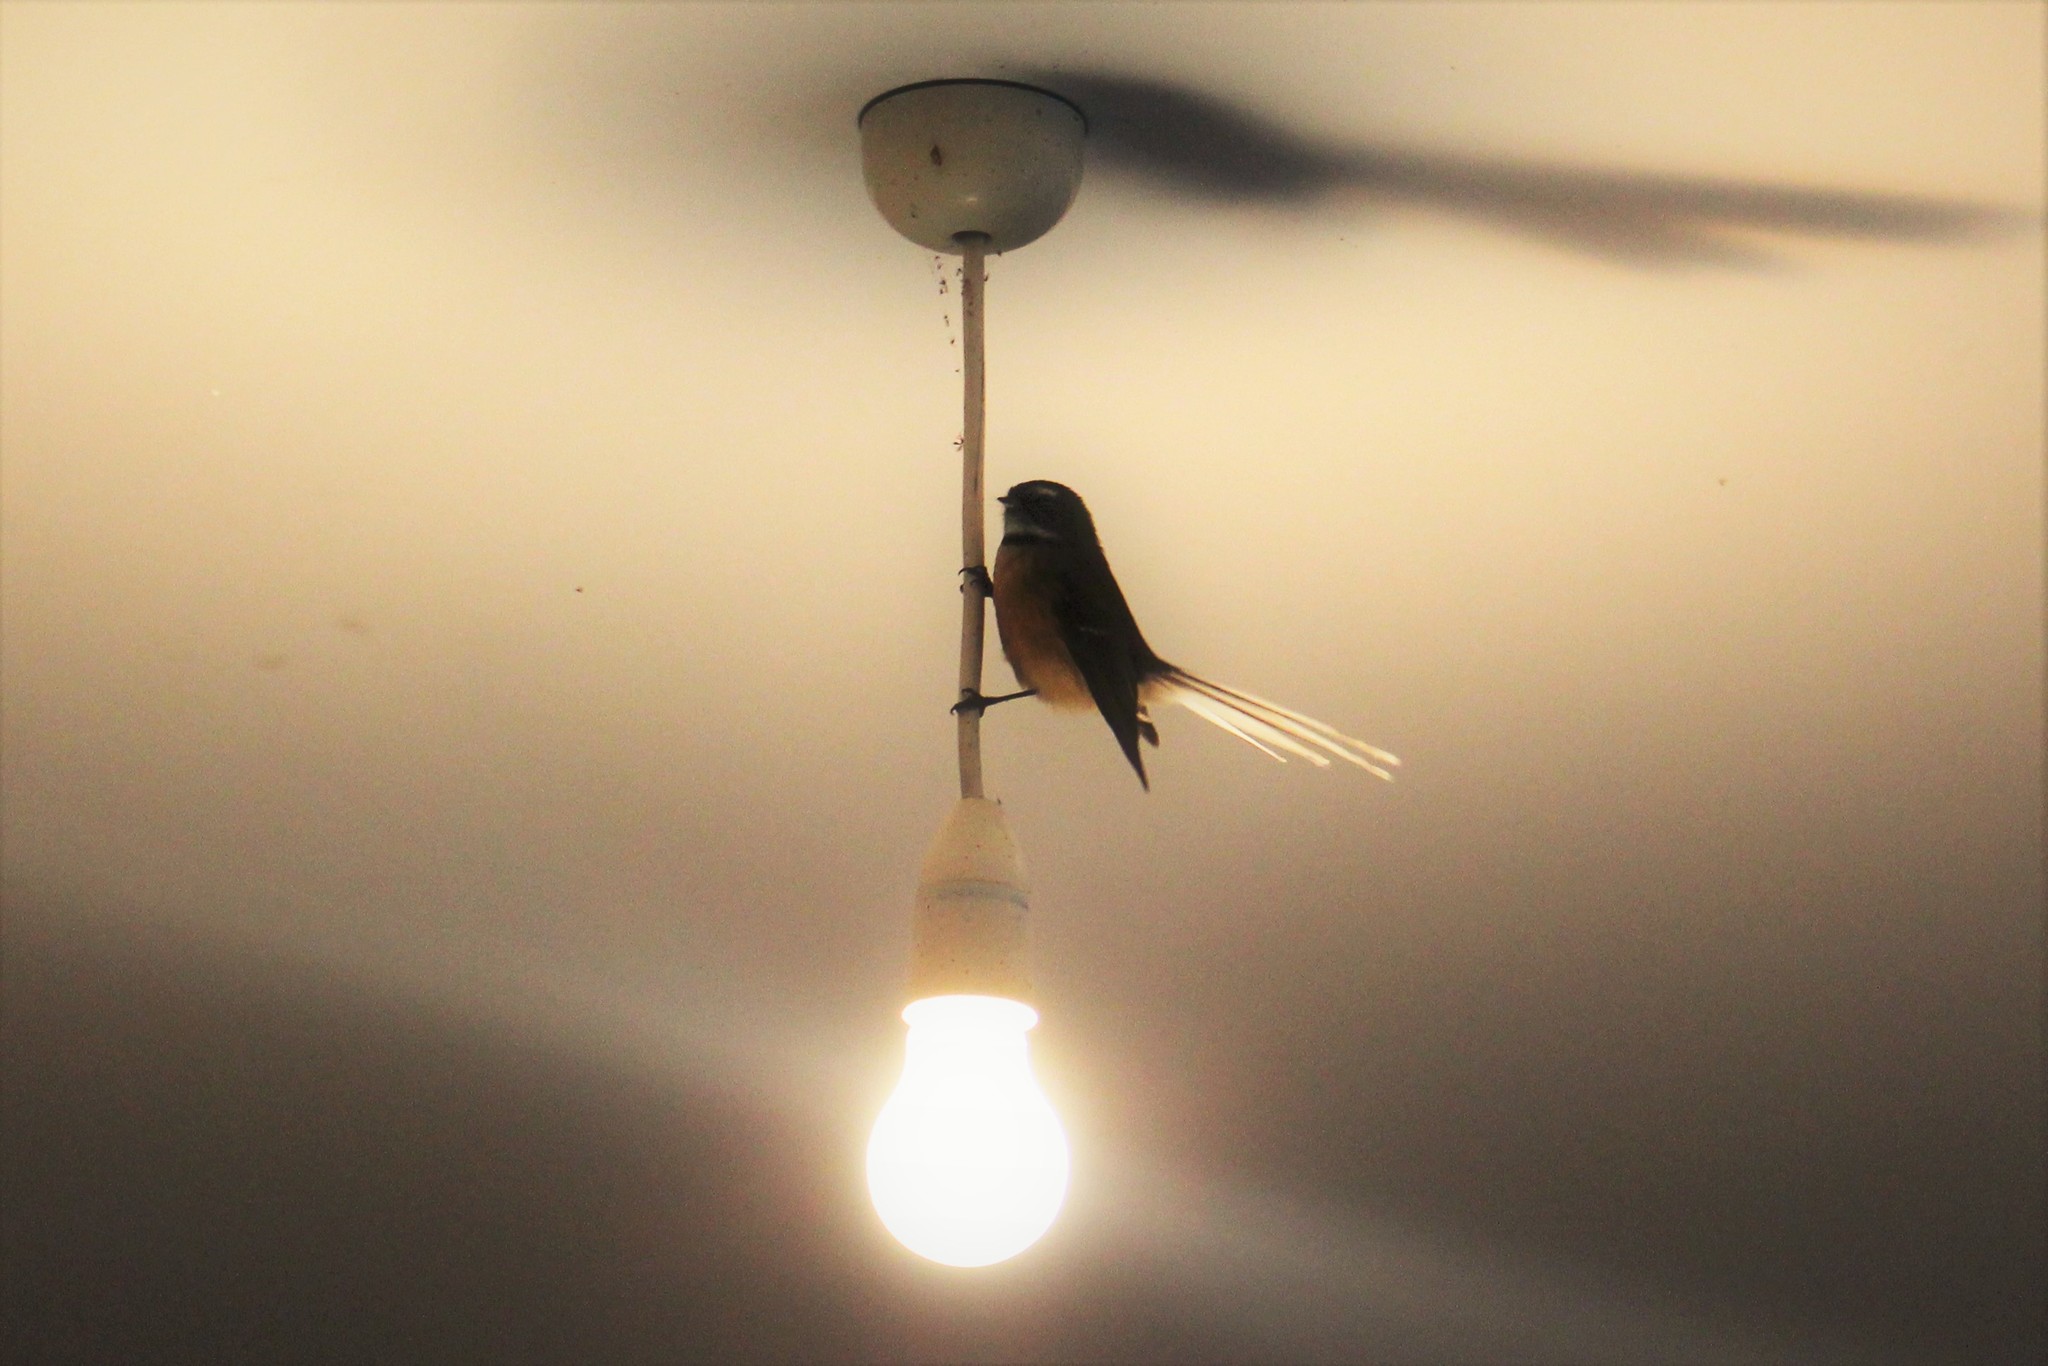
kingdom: Animalia
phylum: Chordata
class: Aves
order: Passeriformes
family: Rhipiduridae
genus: Rhipidura
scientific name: Rhipidura fuliginosa
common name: New zealand fantail
